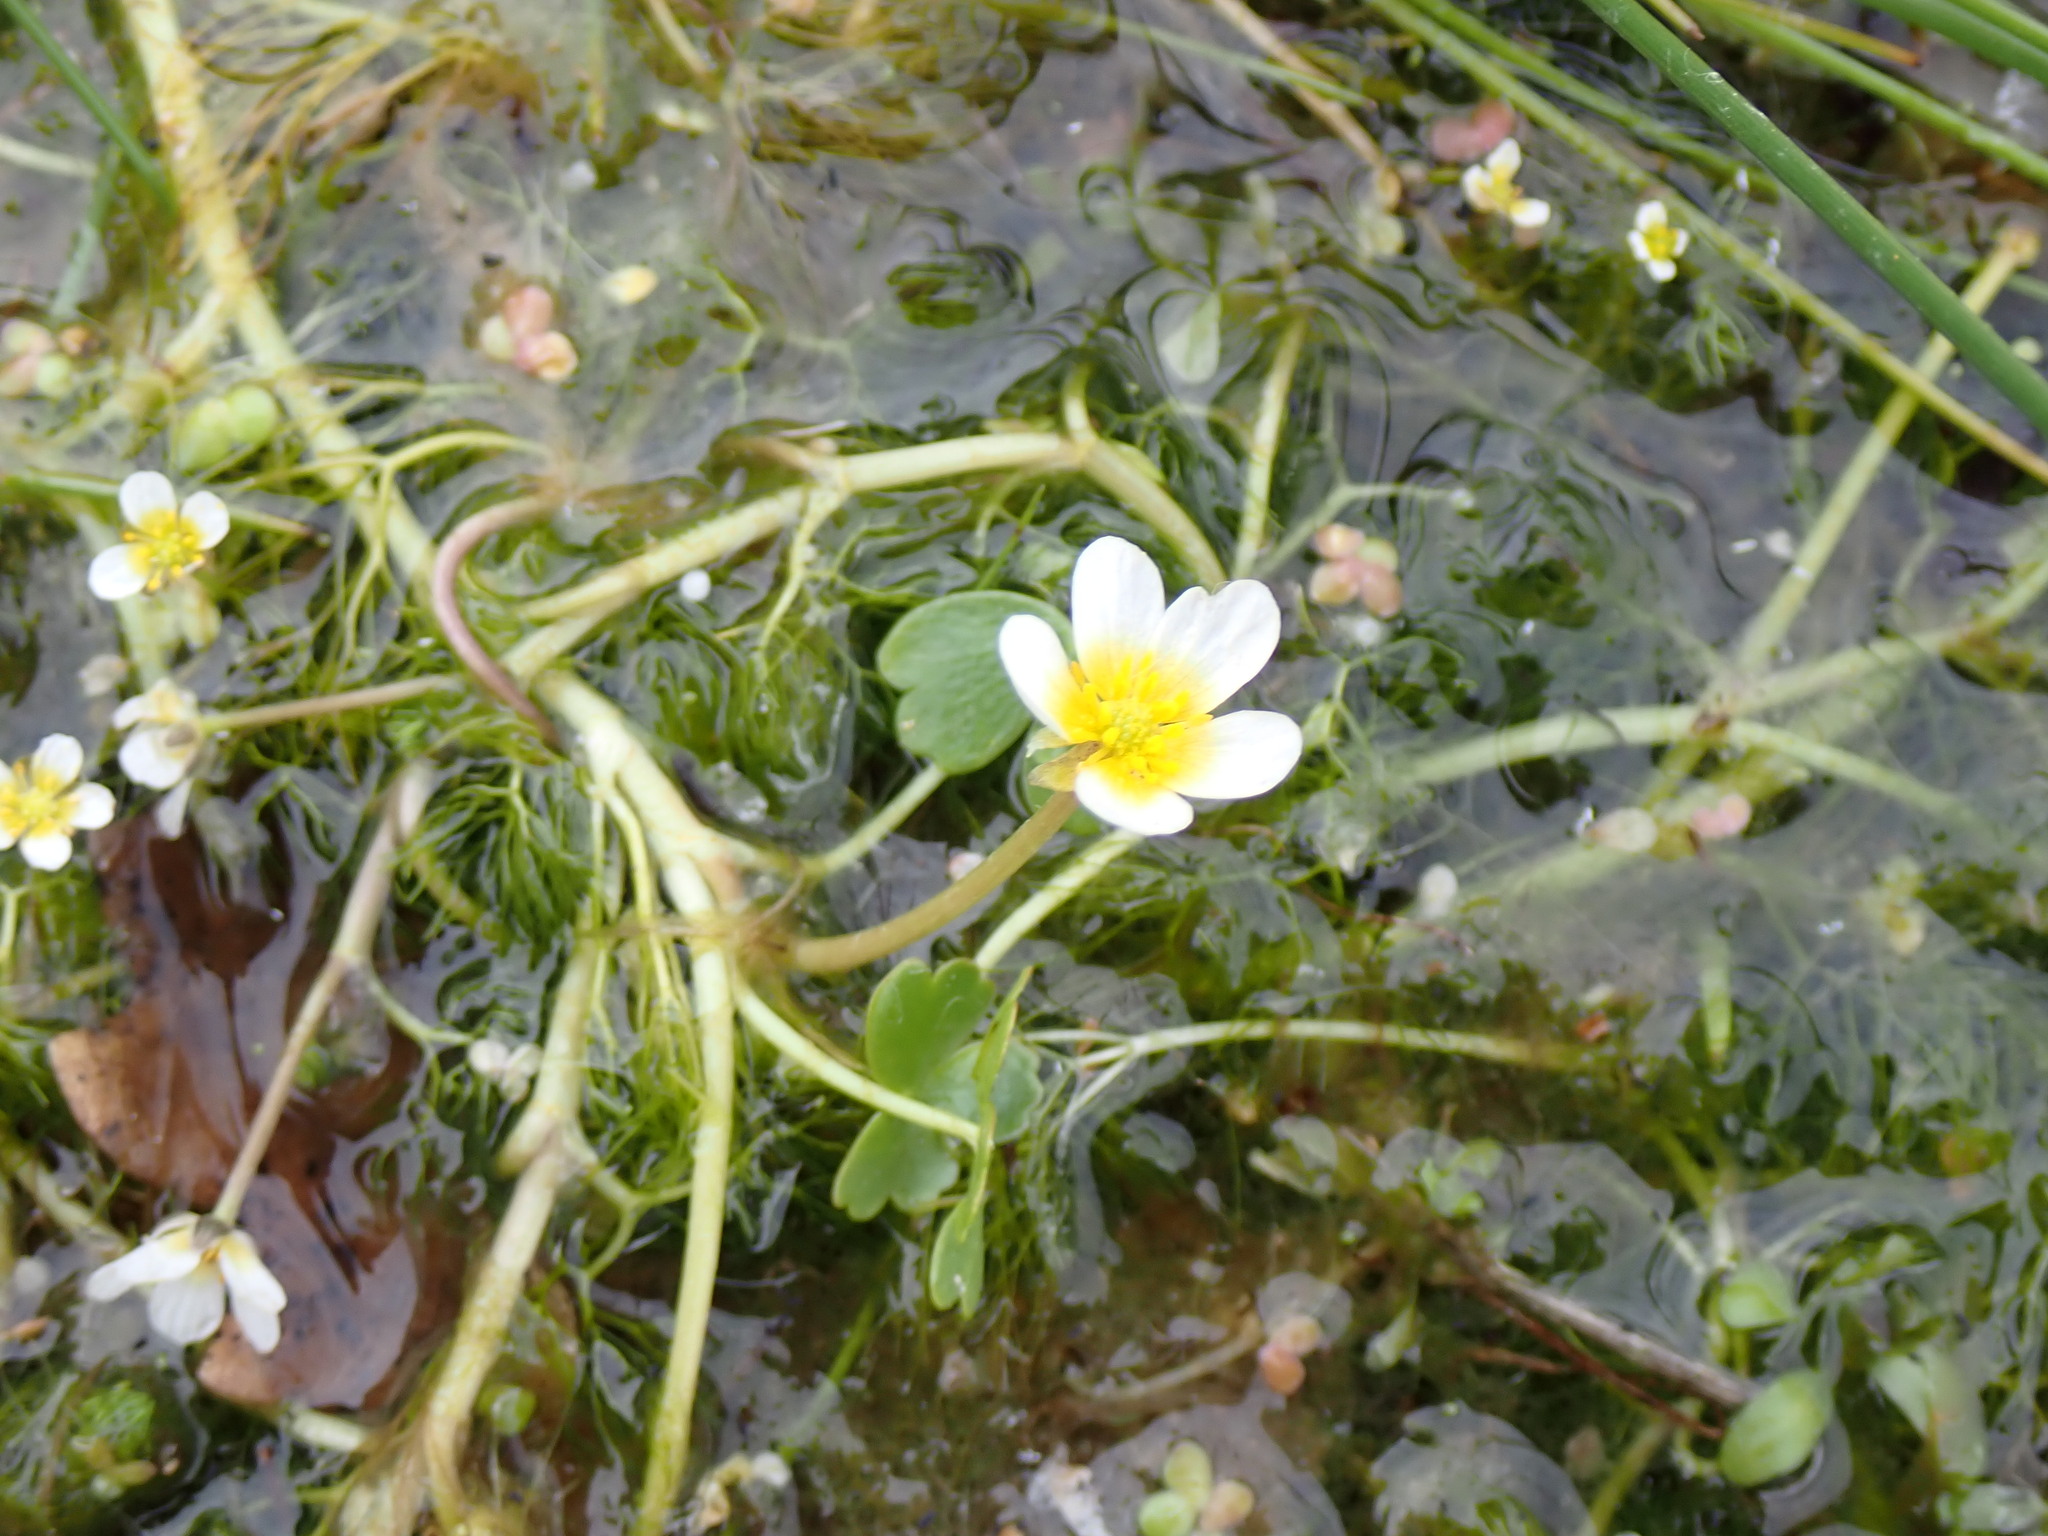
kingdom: Plantae
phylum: Tracheophyta
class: Magnoliopsida
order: Ranunculales
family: Ranunculaceae
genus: Ranunculus
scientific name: Ranunculus peltatus
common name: Pond water-crowfoot
